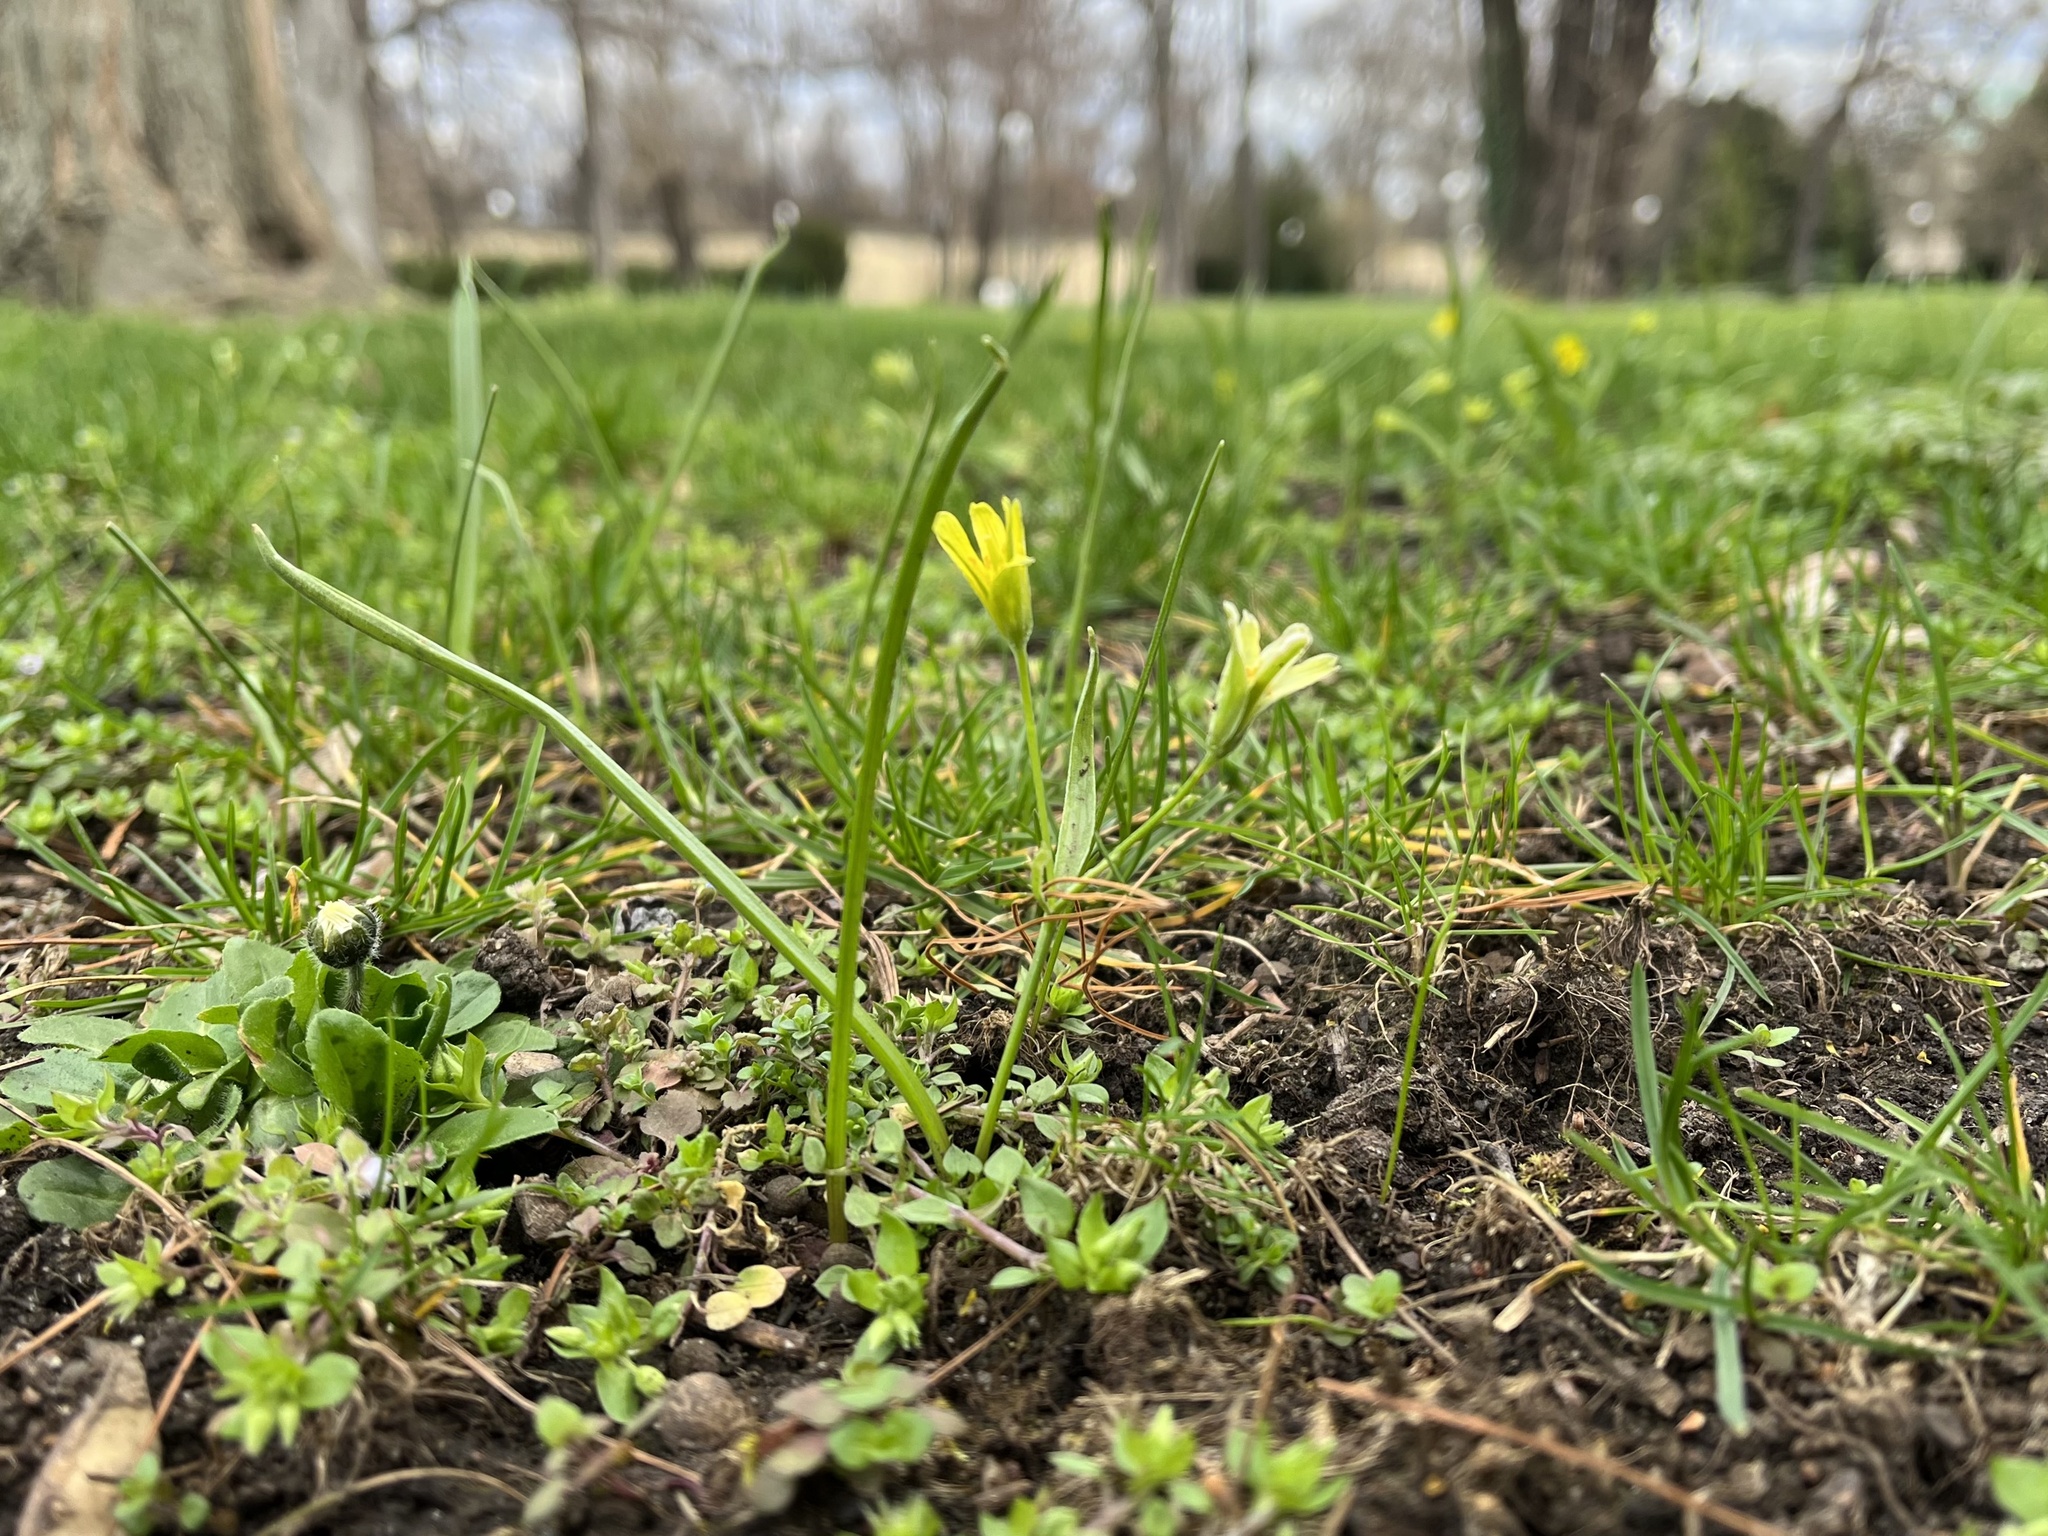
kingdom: Plantae
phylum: Tracheophyta
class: Liliopsida
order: Liliales
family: Liliaceae
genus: Gagea
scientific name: Gagea lutea
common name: Yellow star-of-bethlehem
